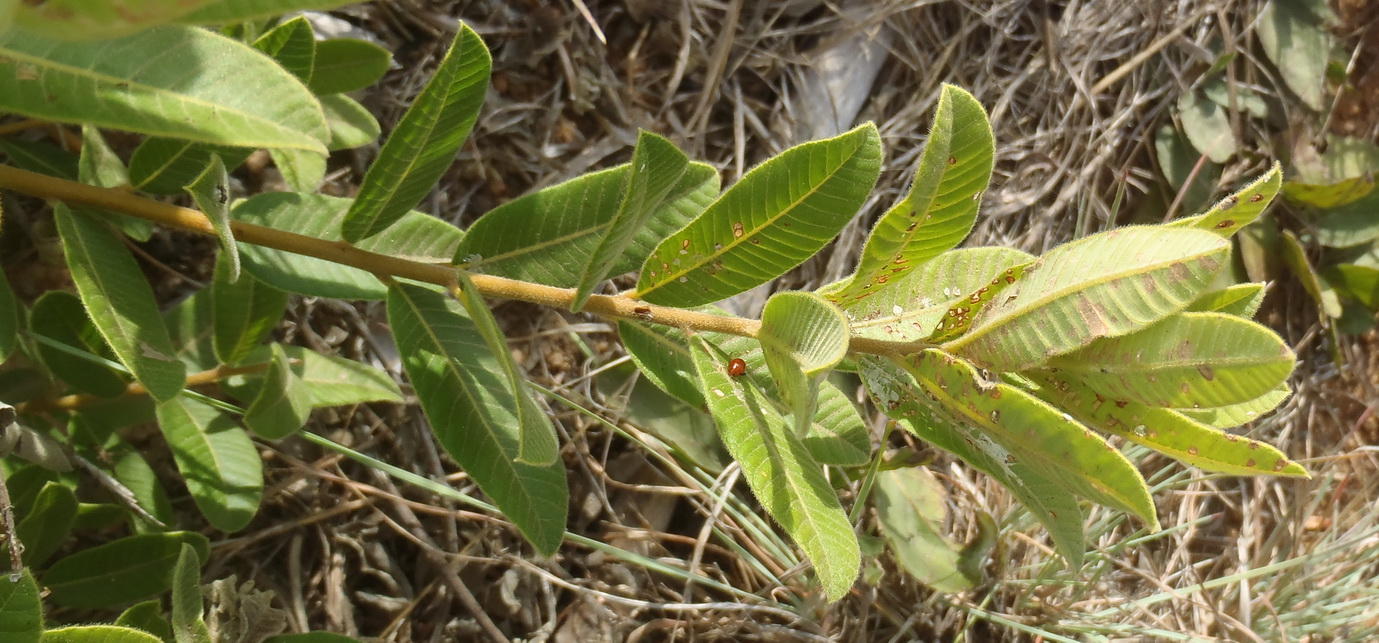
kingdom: Plantae
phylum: Tracheophyta
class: Magnoliopsida
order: Sapindales
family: Anacardiaceae
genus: Ozoroa
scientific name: Ozoroa paniculosa
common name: Bushveld ozoroa
